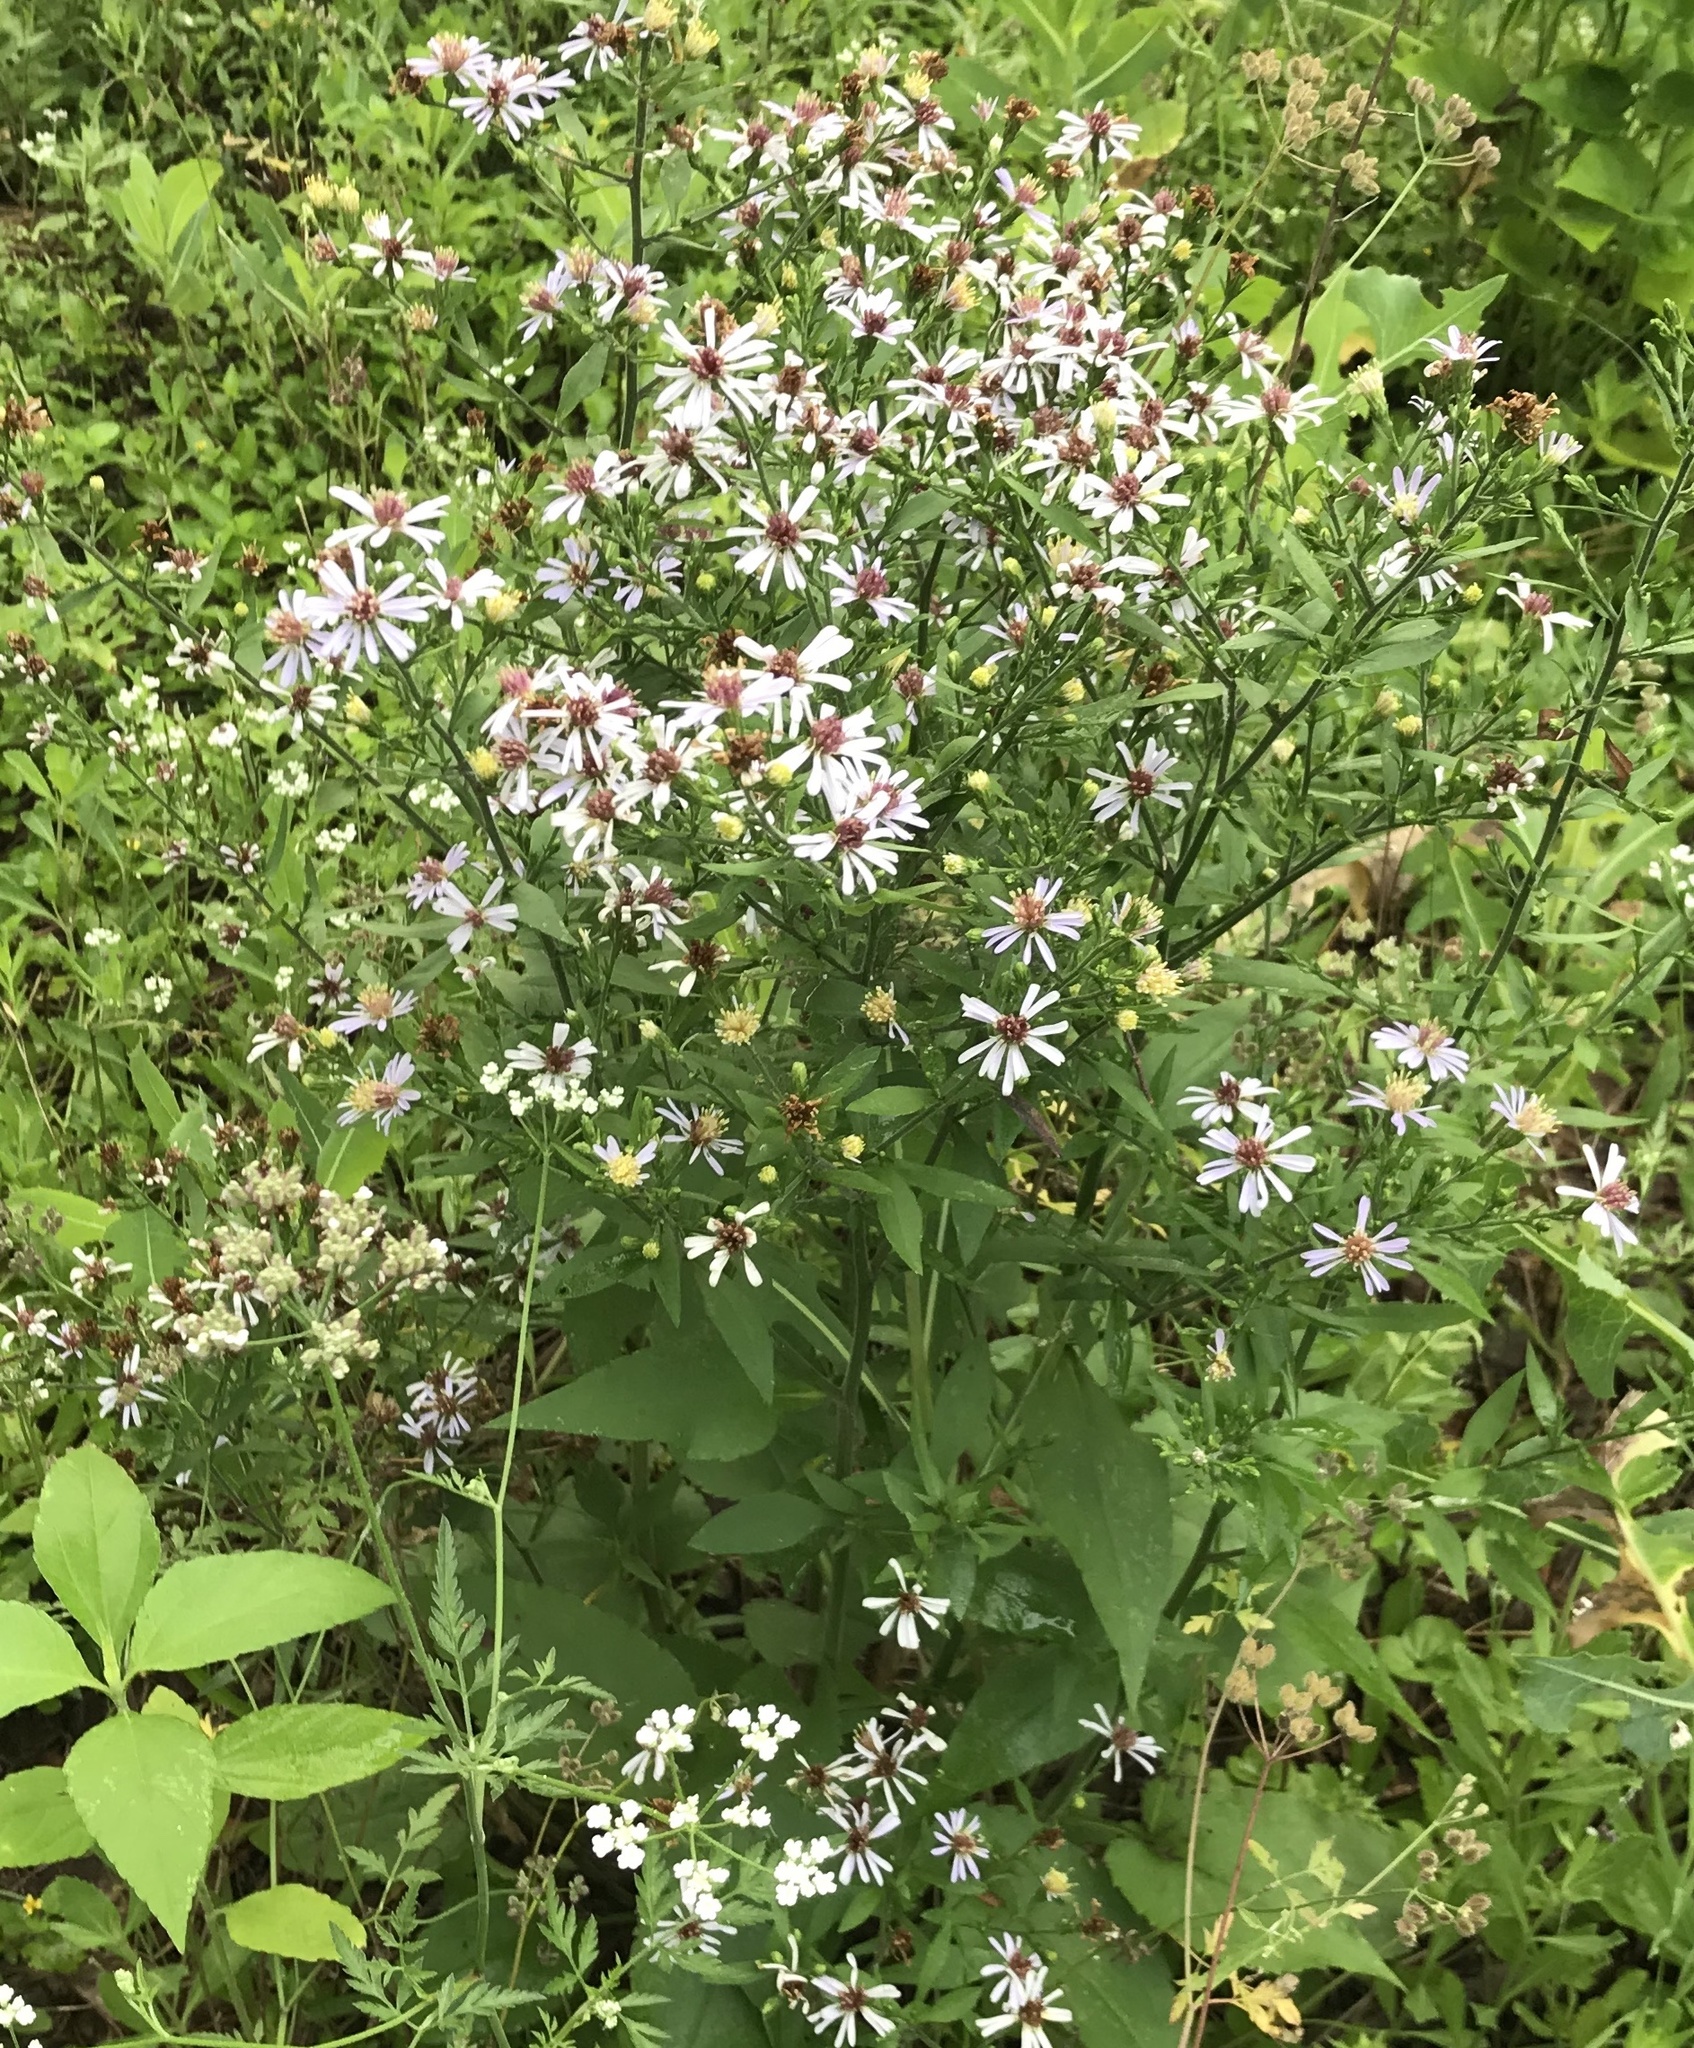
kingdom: Plantae
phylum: Tracheophyta
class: Magnoliopsida
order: Asterales
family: Asteraceae
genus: Symphyotrichum
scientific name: Symphyotrichum drummondii
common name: Drummond's aster
